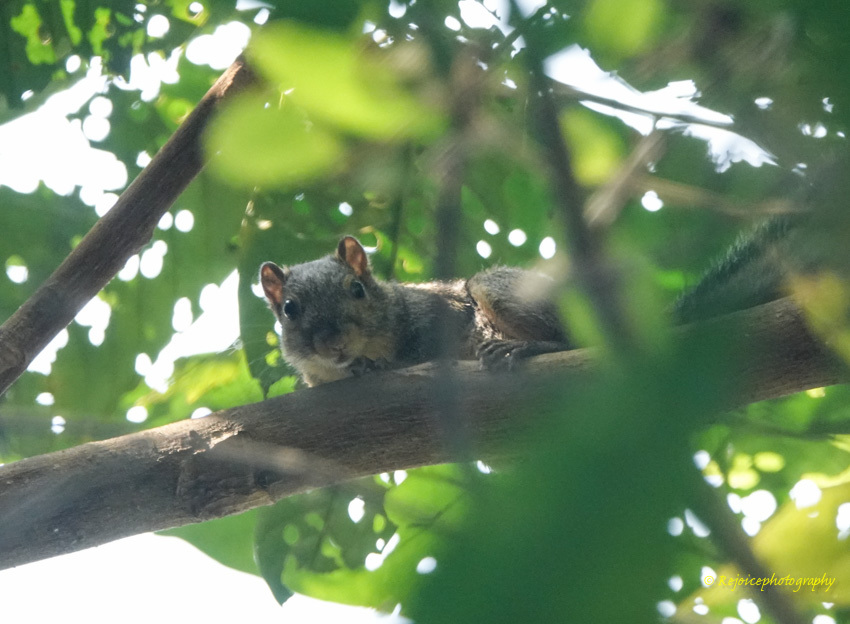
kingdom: Animalia
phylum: Chordata
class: Mammalia
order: Rodentia
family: Sciuridae
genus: Callosciurus
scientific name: Callosciurus pygerythrus
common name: Irrawaddy squirrel
